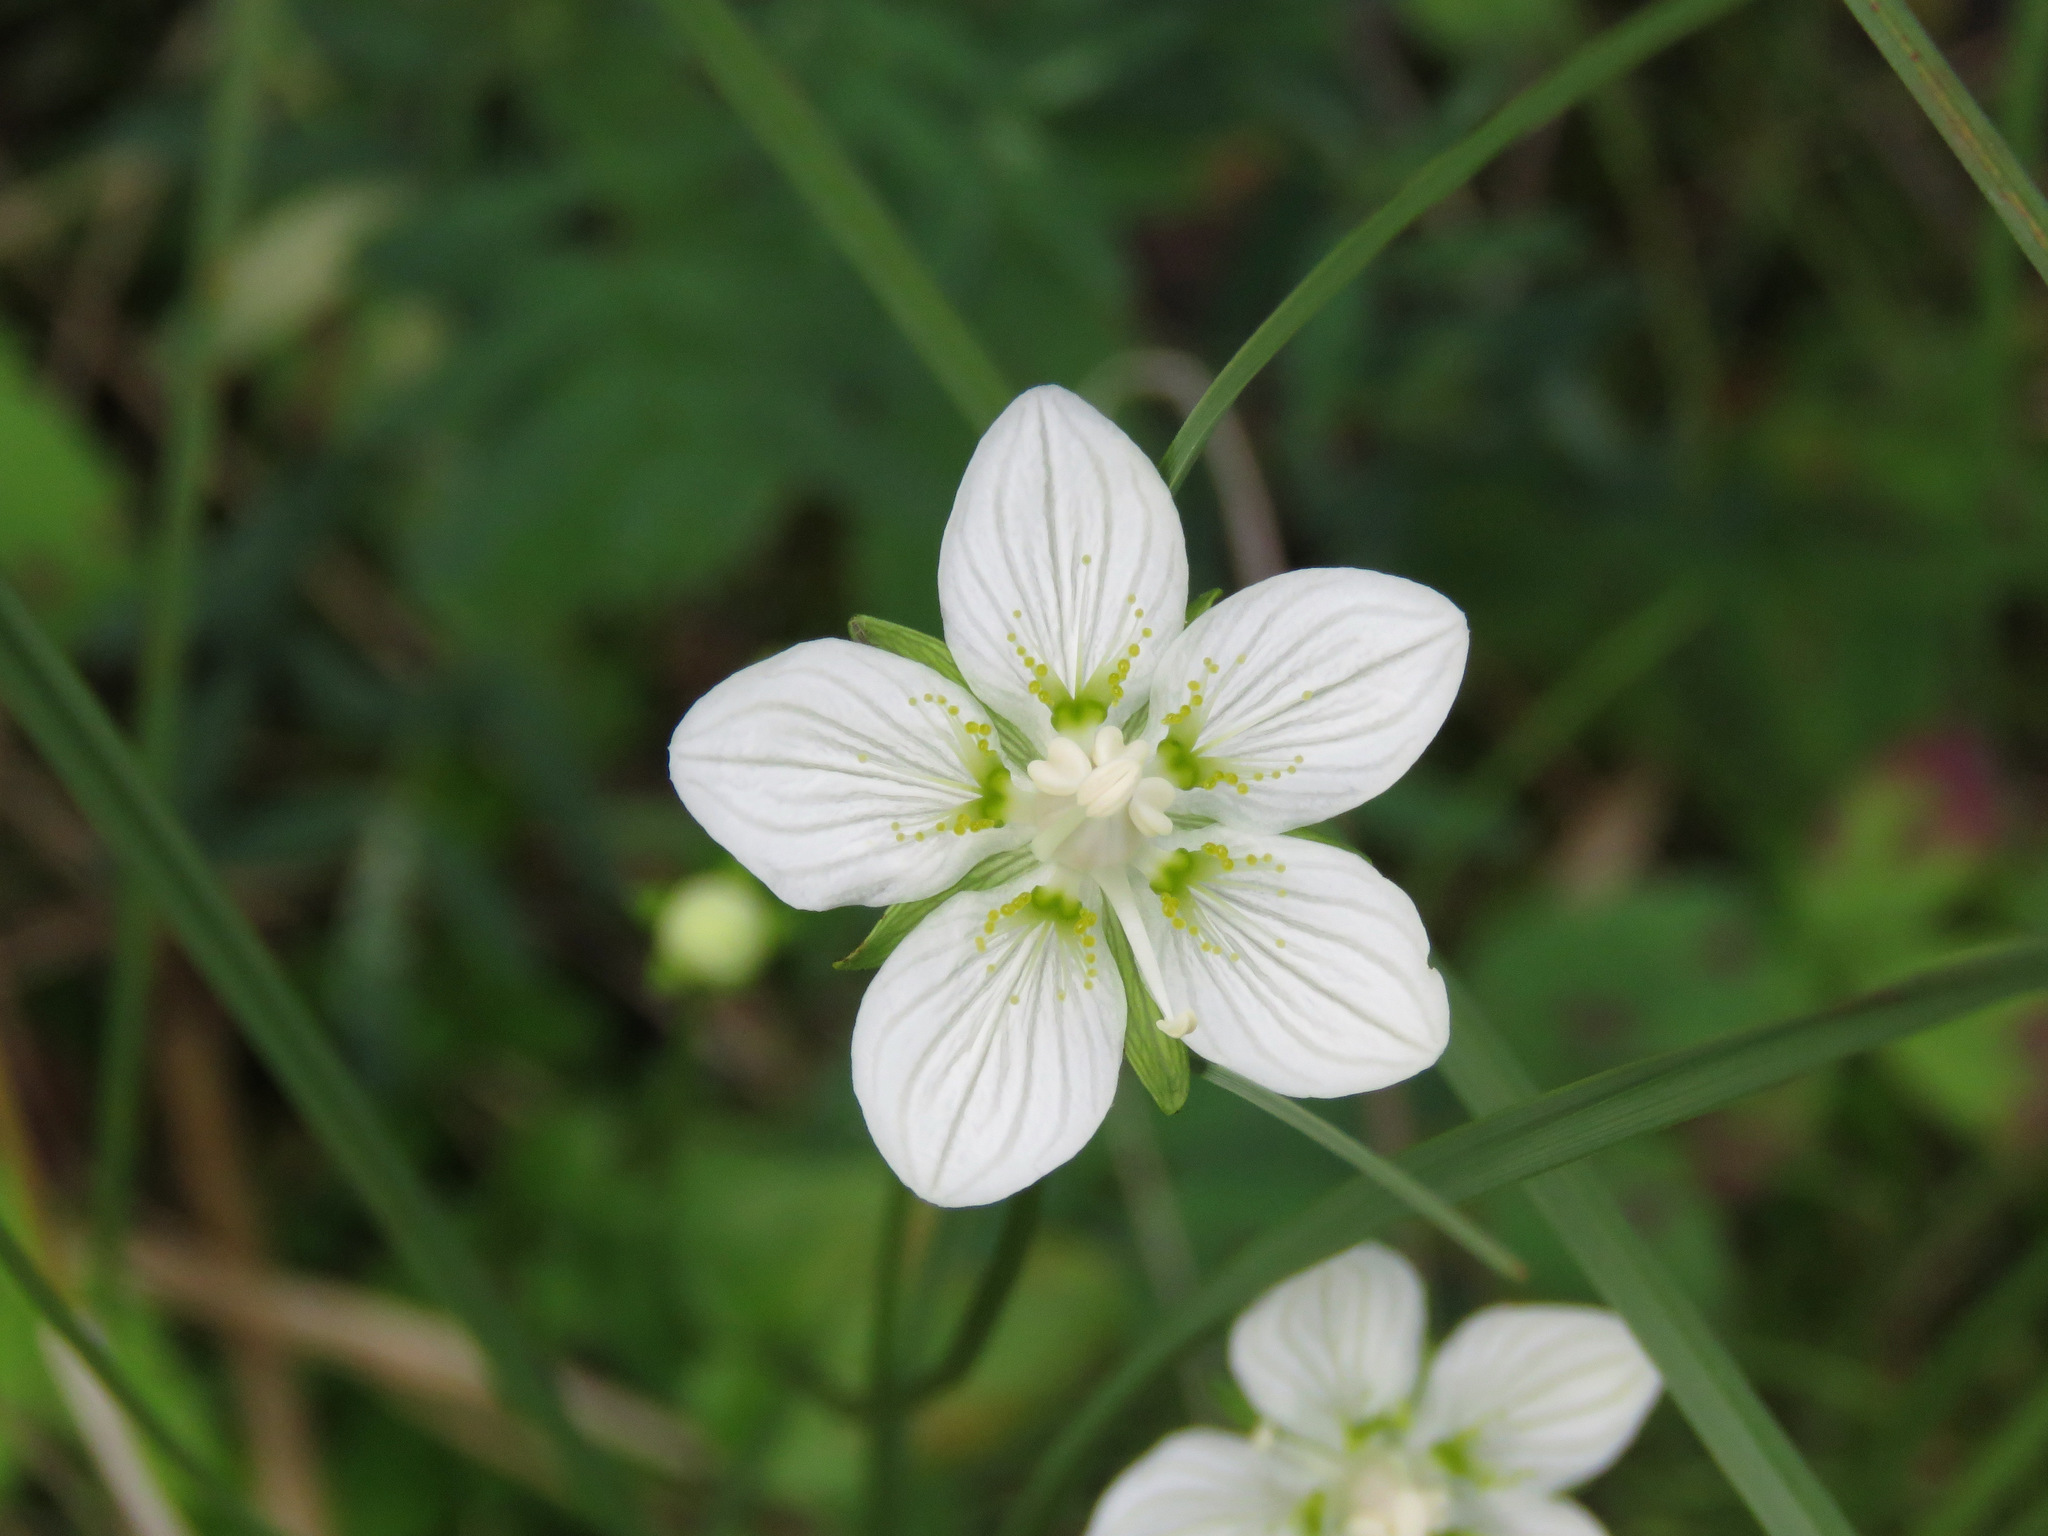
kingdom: Plantae
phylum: Tracheophyta
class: Magnoliopsida
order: Celastrales
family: Parnassiaceae
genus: Parnassia
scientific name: Parnassia palustris
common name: Grass-of-parnassus
